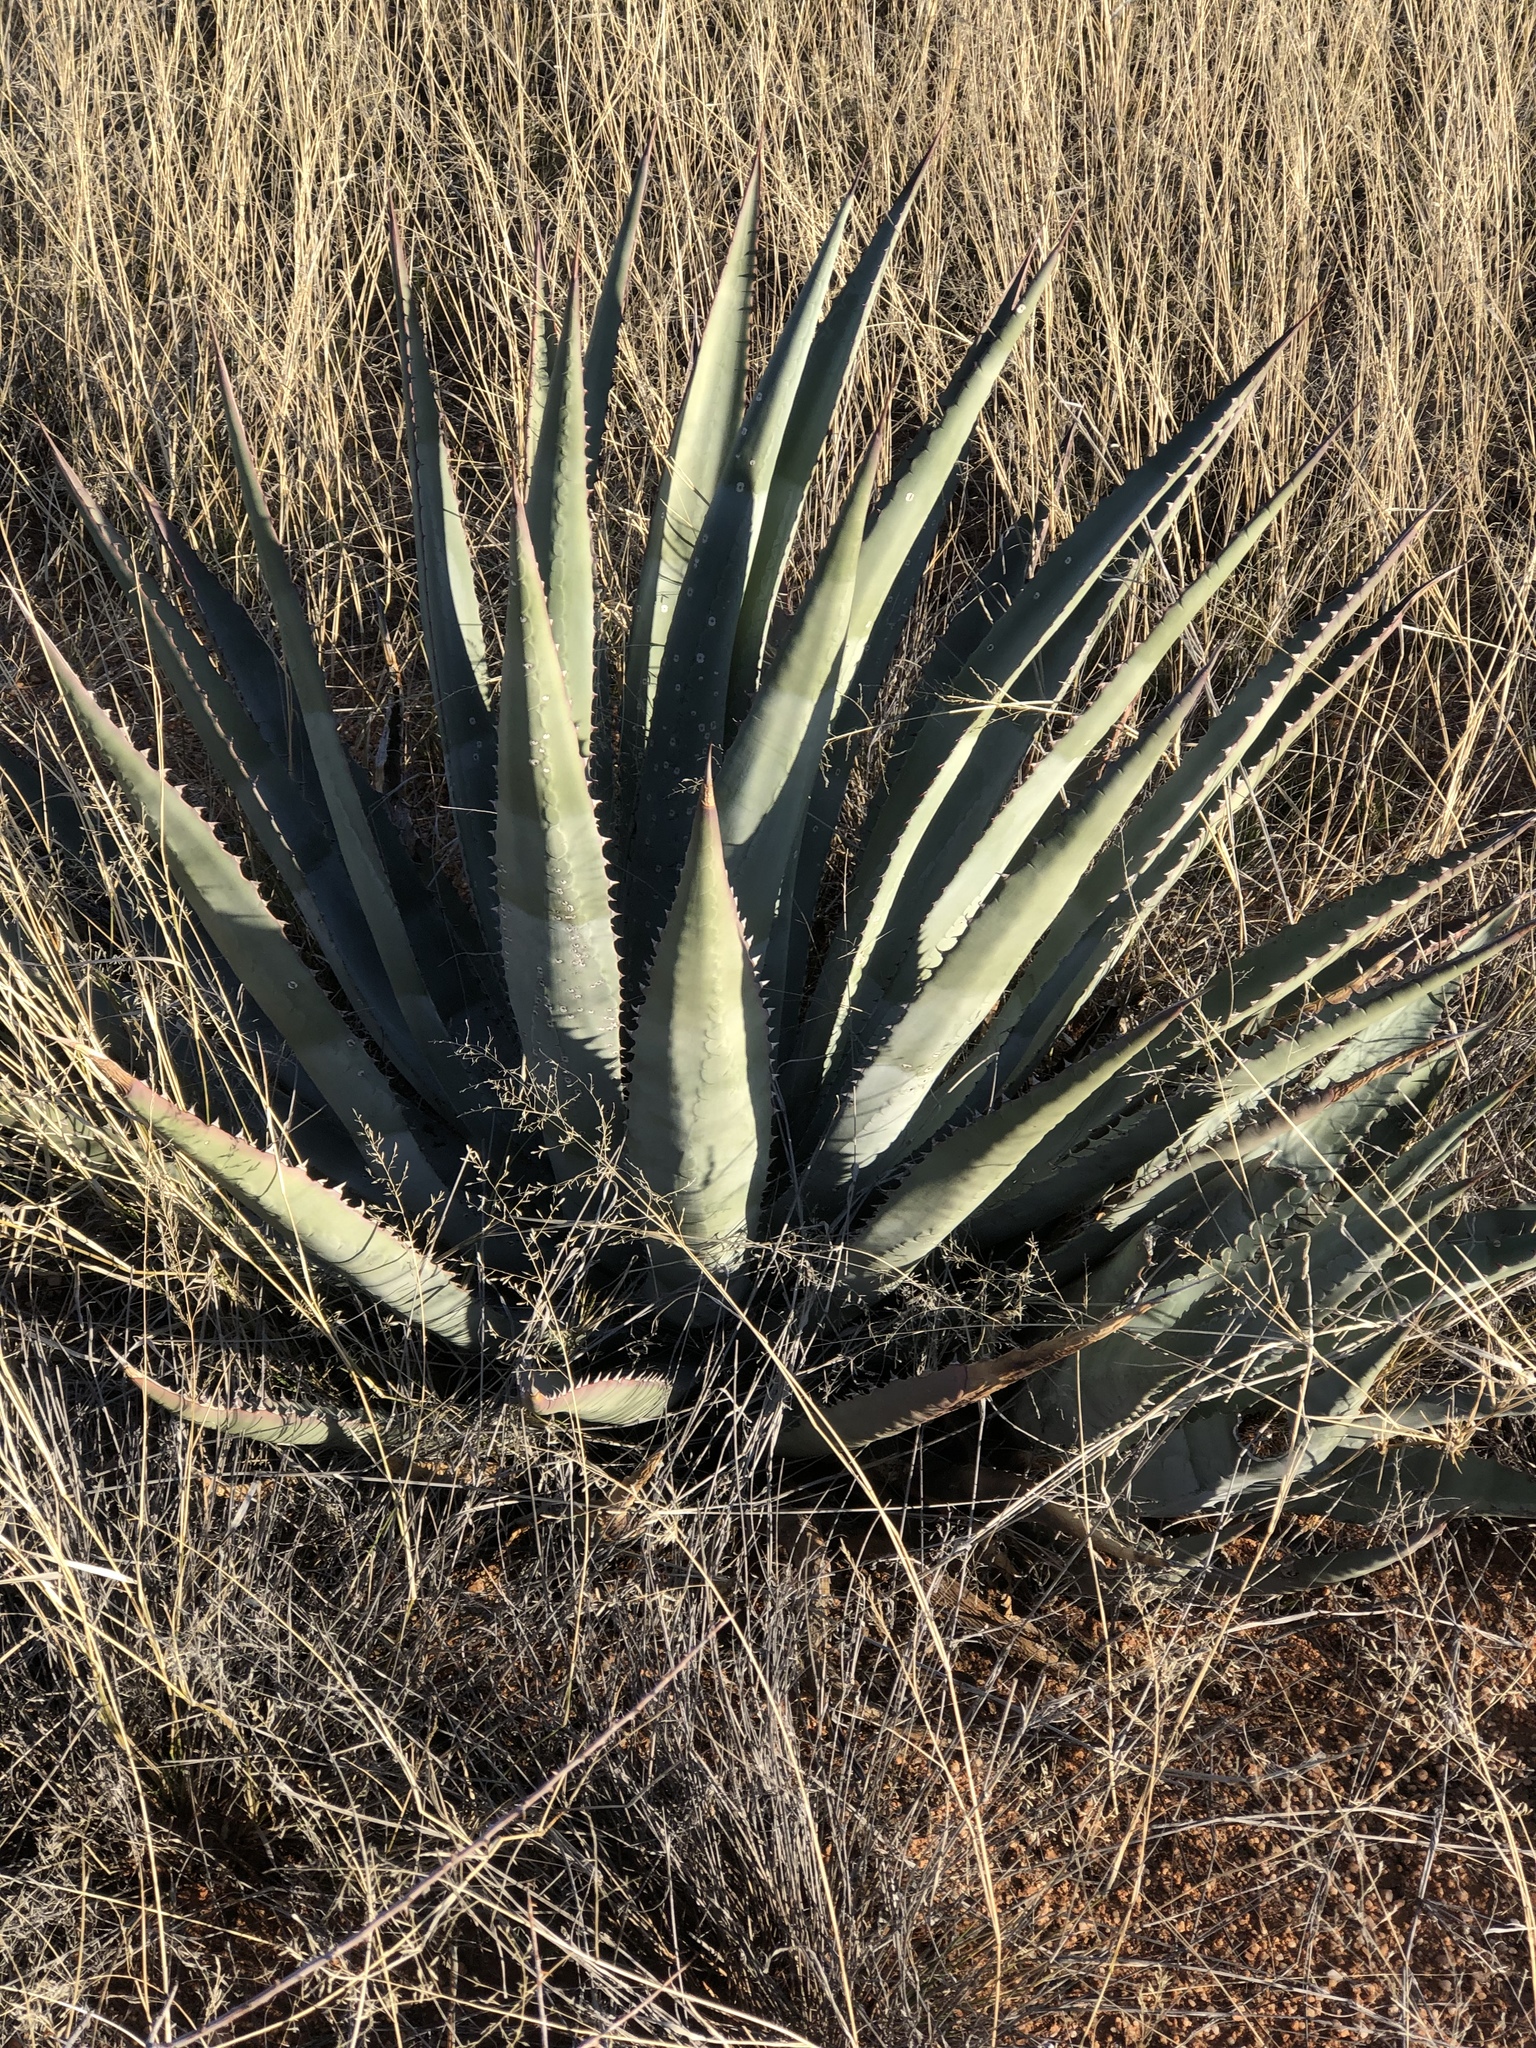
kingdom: Plantae
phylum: Tracheophyta
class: Liliopsida
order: Asparagales
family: Asparagaceae
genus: Agave
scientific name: Agave palmeri
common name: Palmer agave
